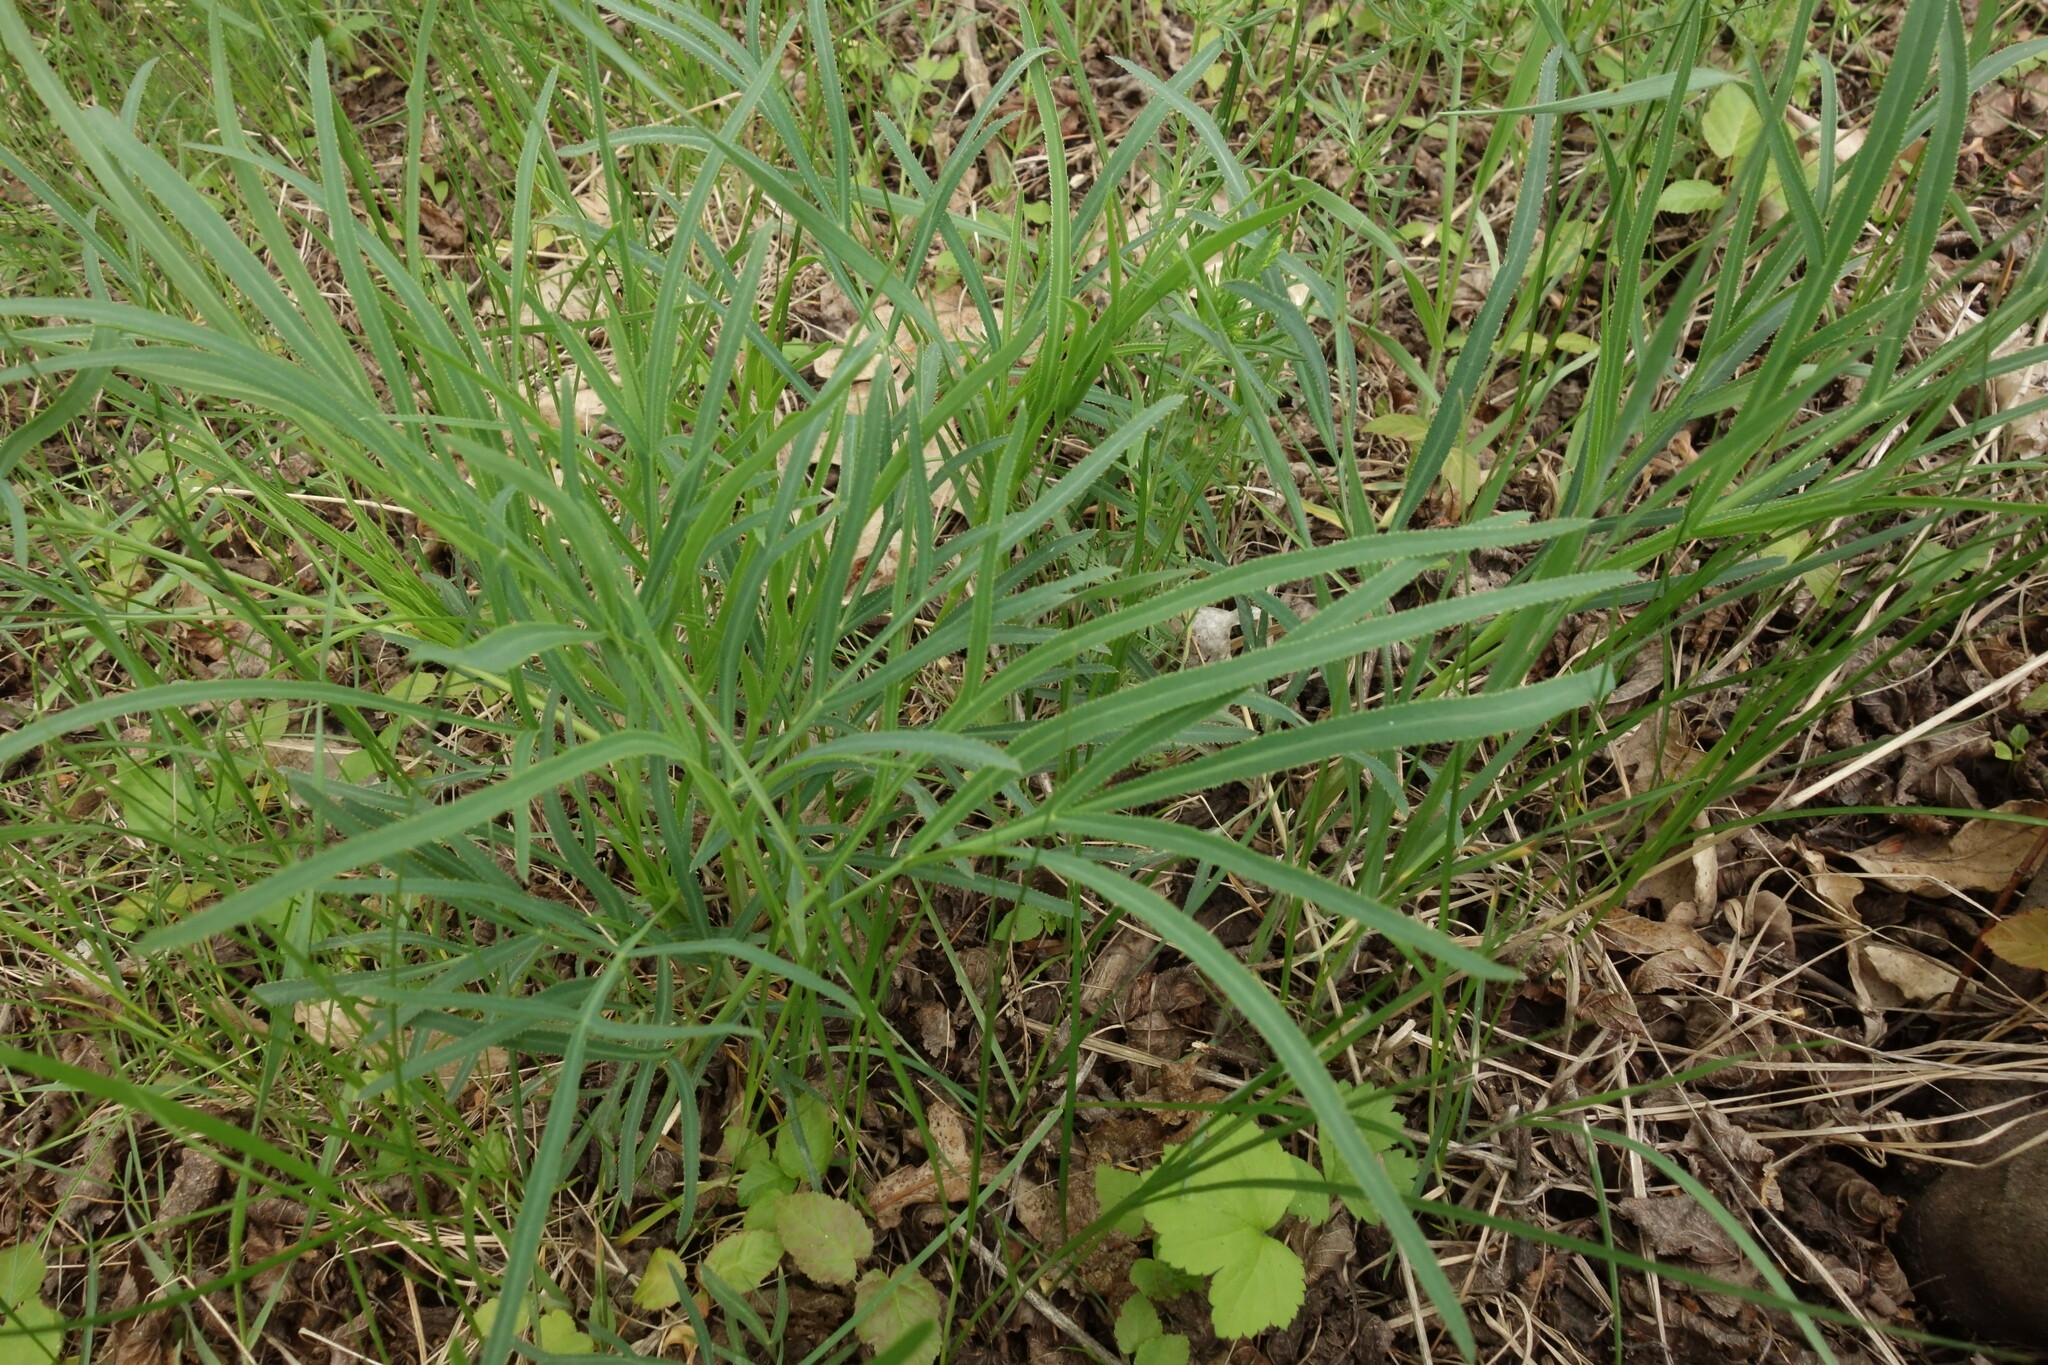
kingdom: Plantae
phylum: Tracheophyta
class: Magnoliopsida
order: Apiales
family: Apiaceae
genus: Falcaria
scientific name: Falcaria vulgaris
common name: Longleaf
